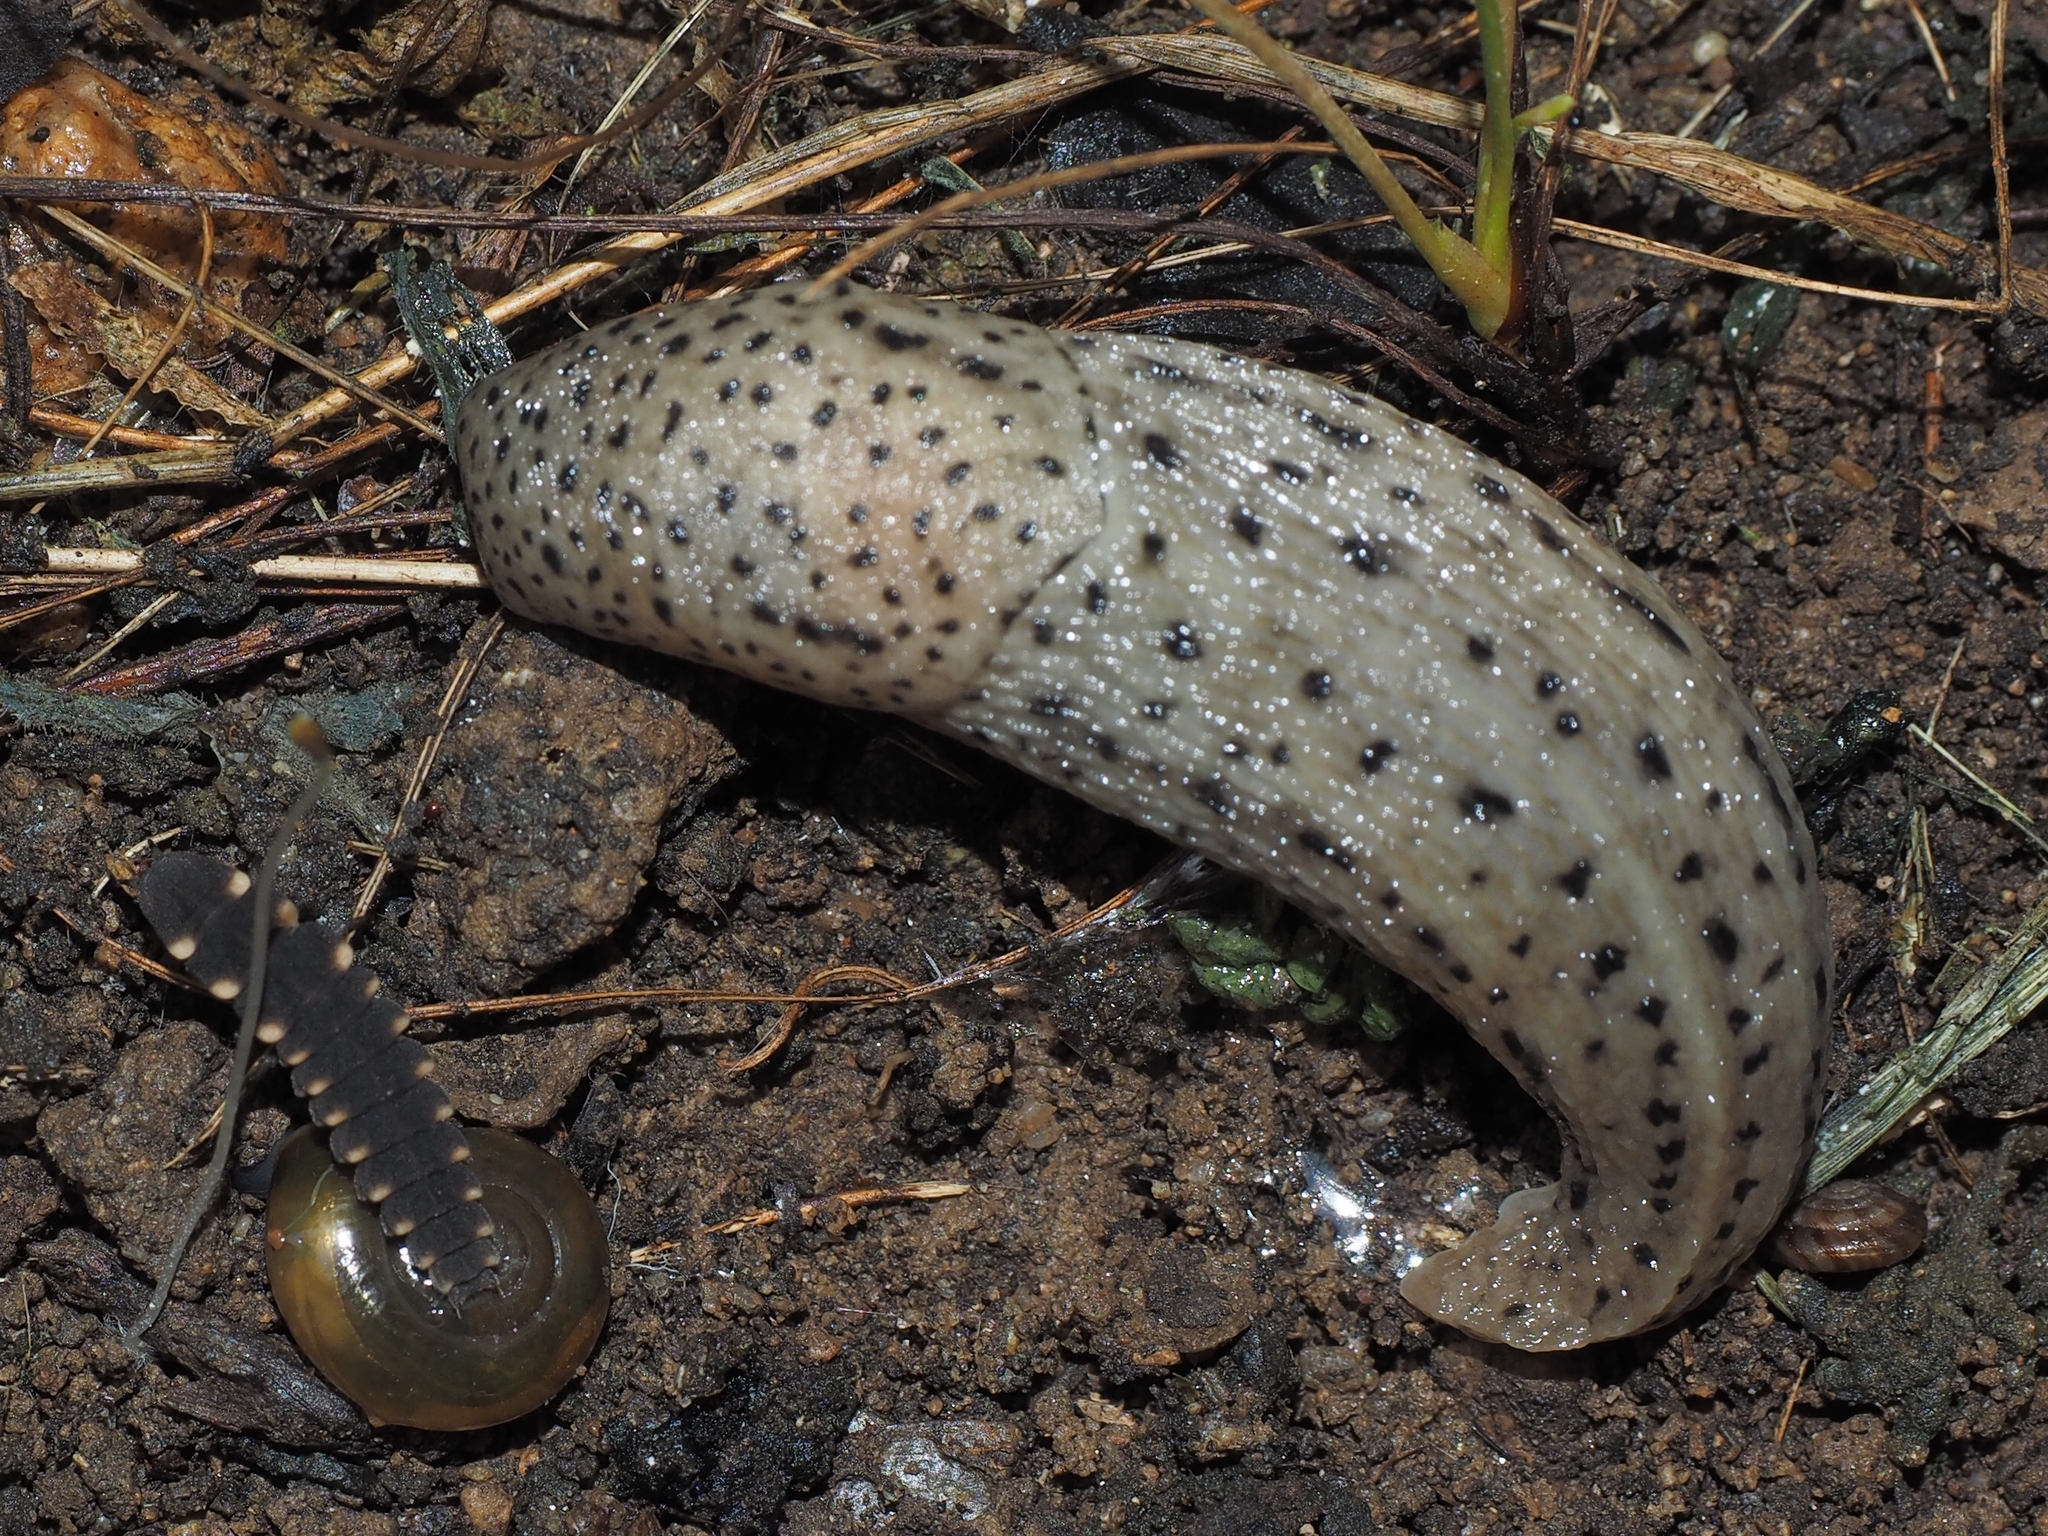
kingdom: Animalia
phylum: Mollusca
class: Gastropoda
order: Stylommatophora
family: Limacidae
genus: Limax
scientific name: Limax maximus
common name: Great grey slug
